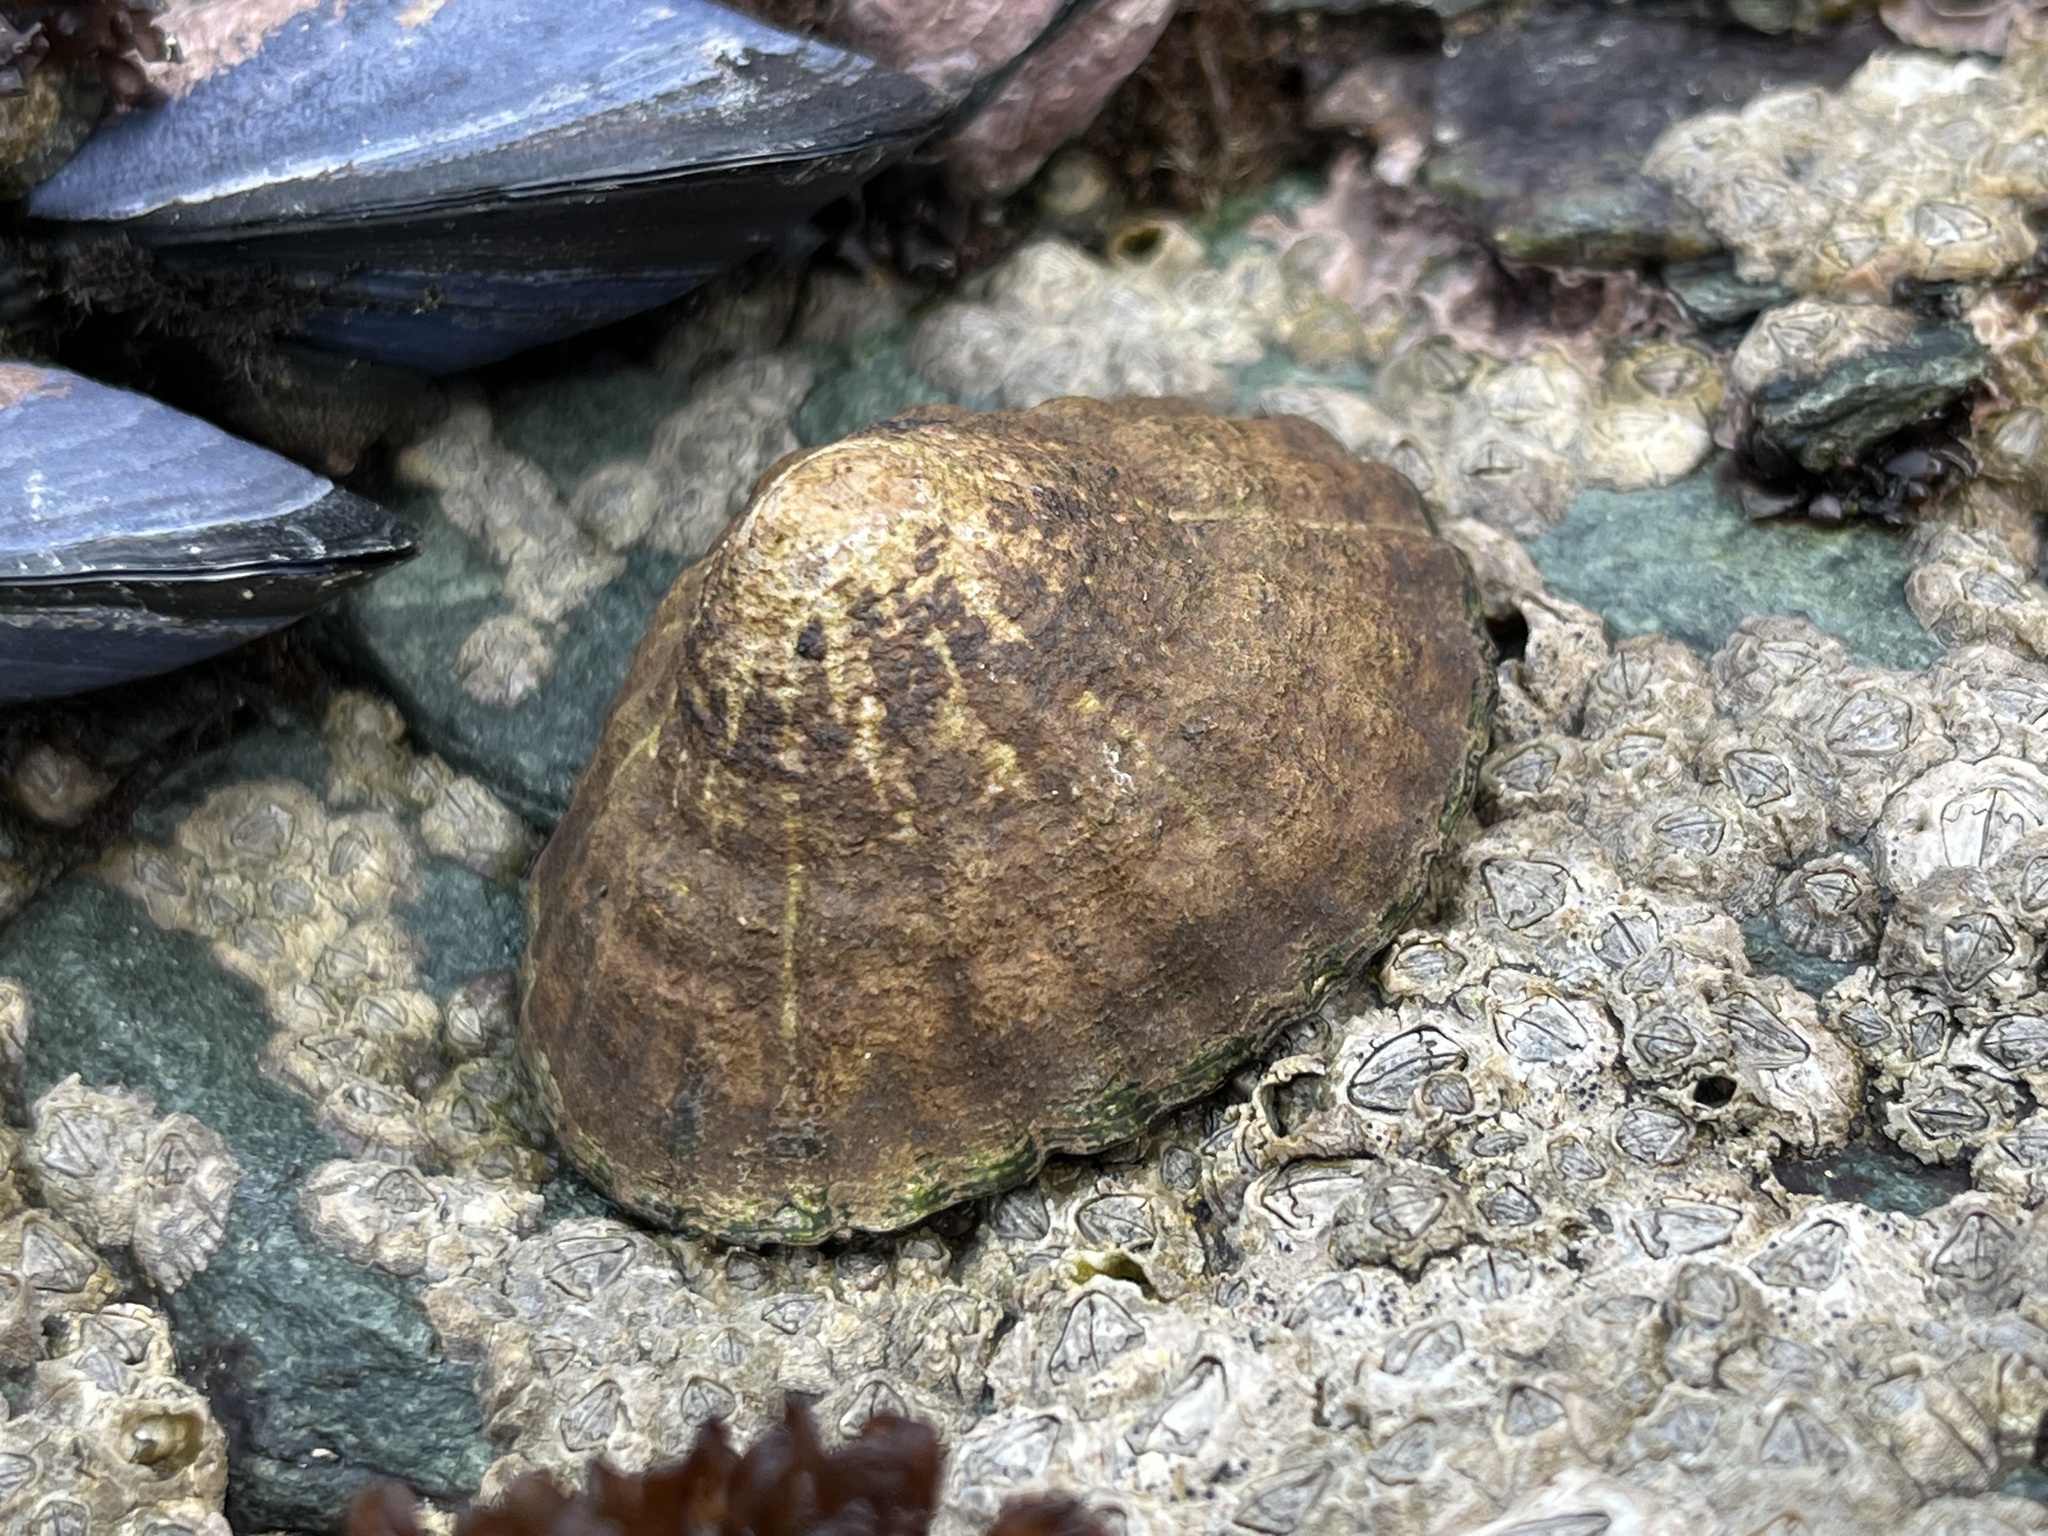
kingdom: Animalia
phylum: Mollusca
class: Gastropoda
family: Nacellidae
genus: Nacella
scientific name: Nacella magellanica
